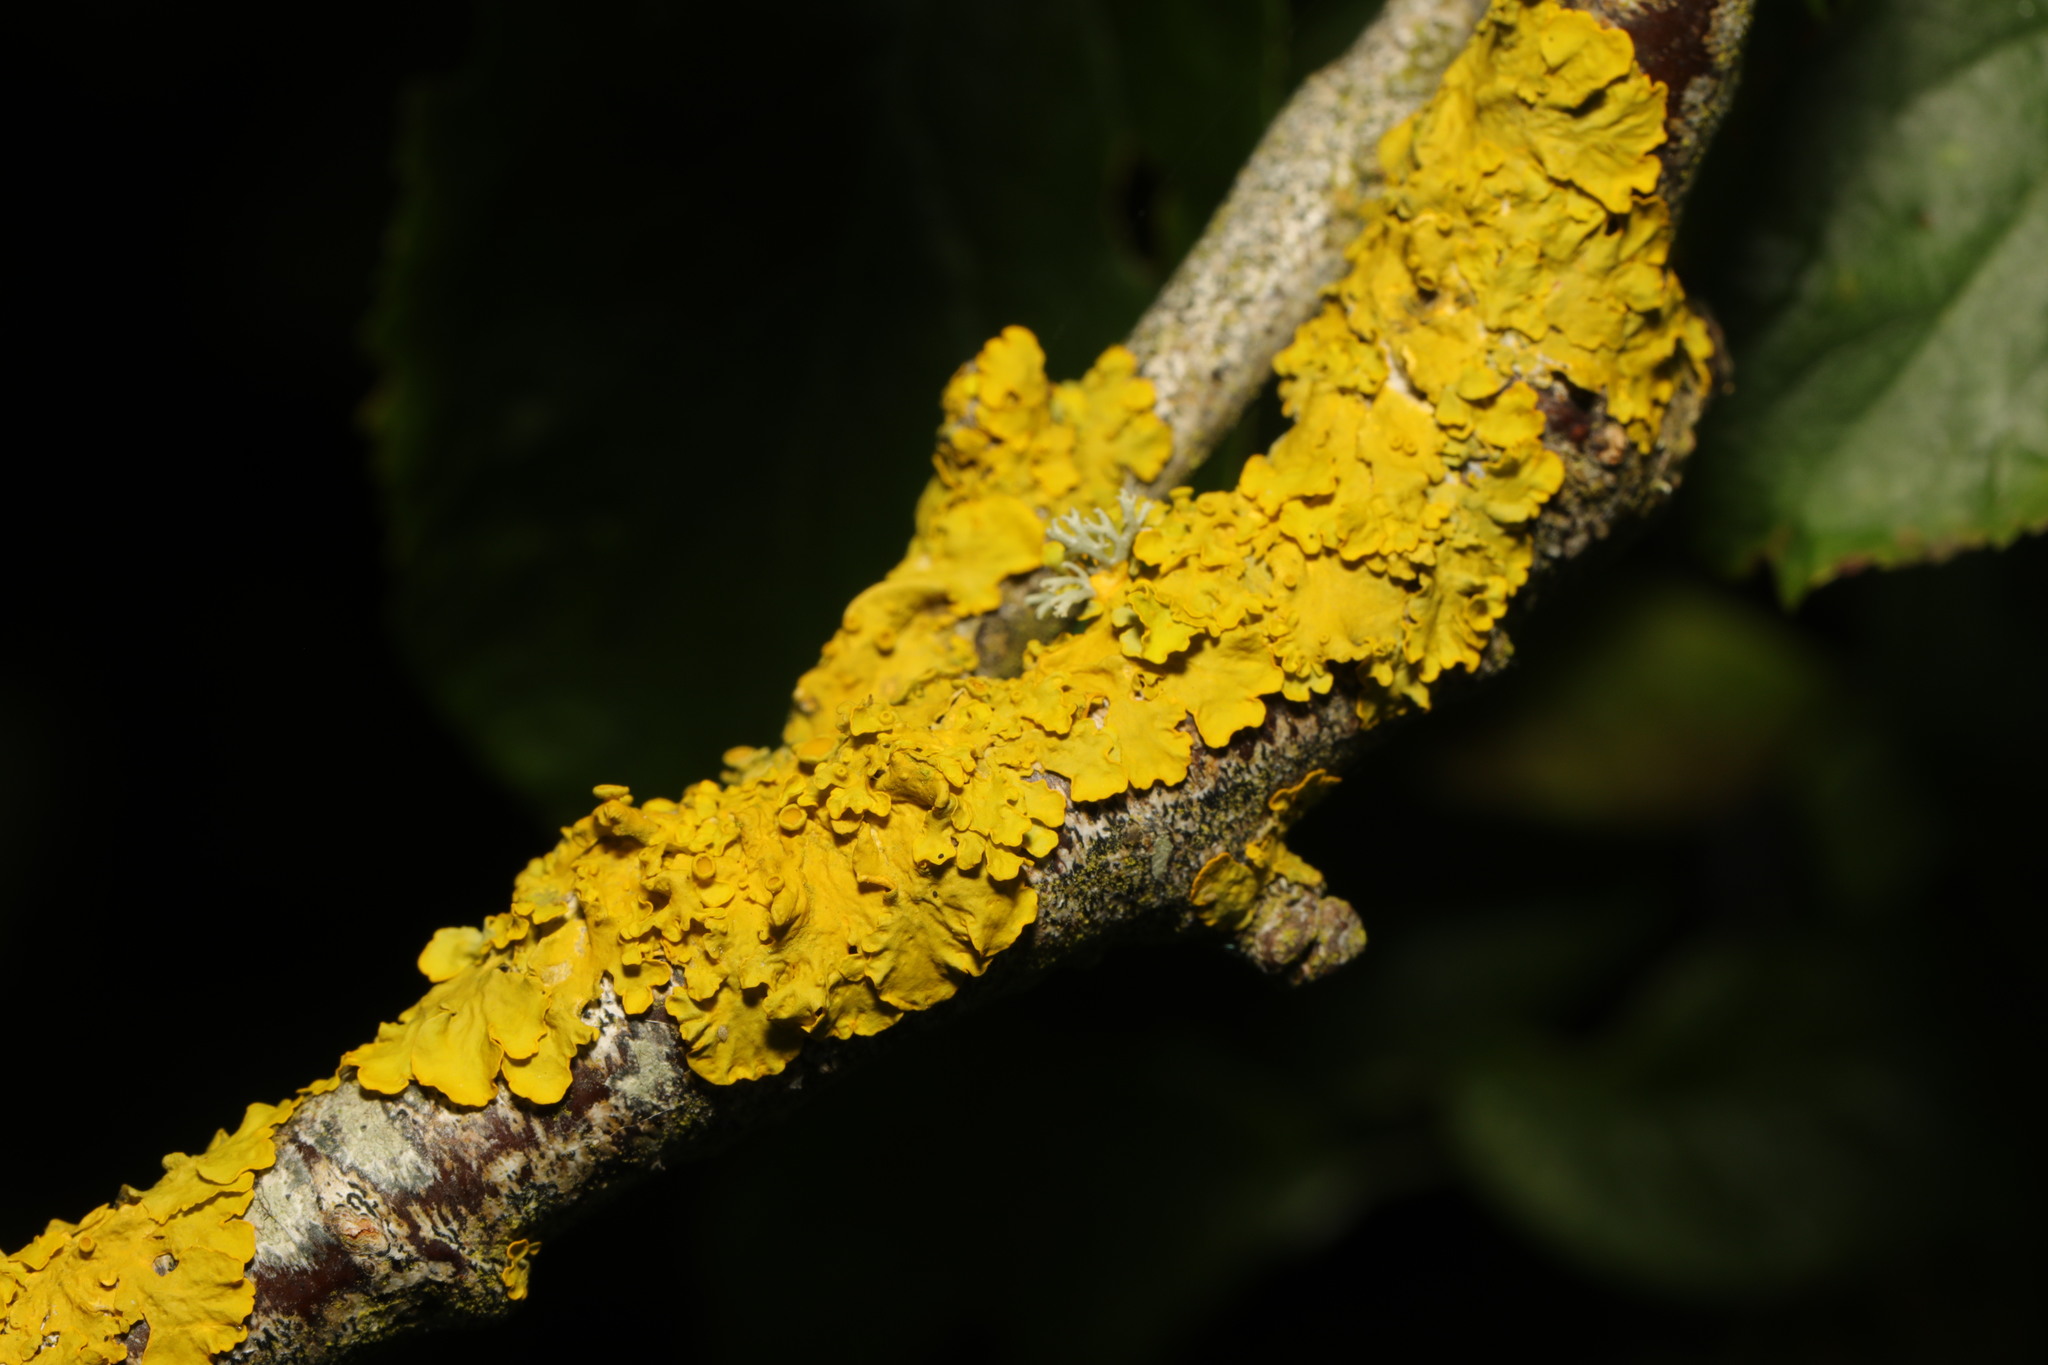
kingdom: Fungi
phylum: Ascomycota
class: Lecanoromycetes
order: Teloschistales
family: Teloschistaceae
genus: Xanthoria
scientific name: Xanthoria parietina
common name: Common orange lichen
